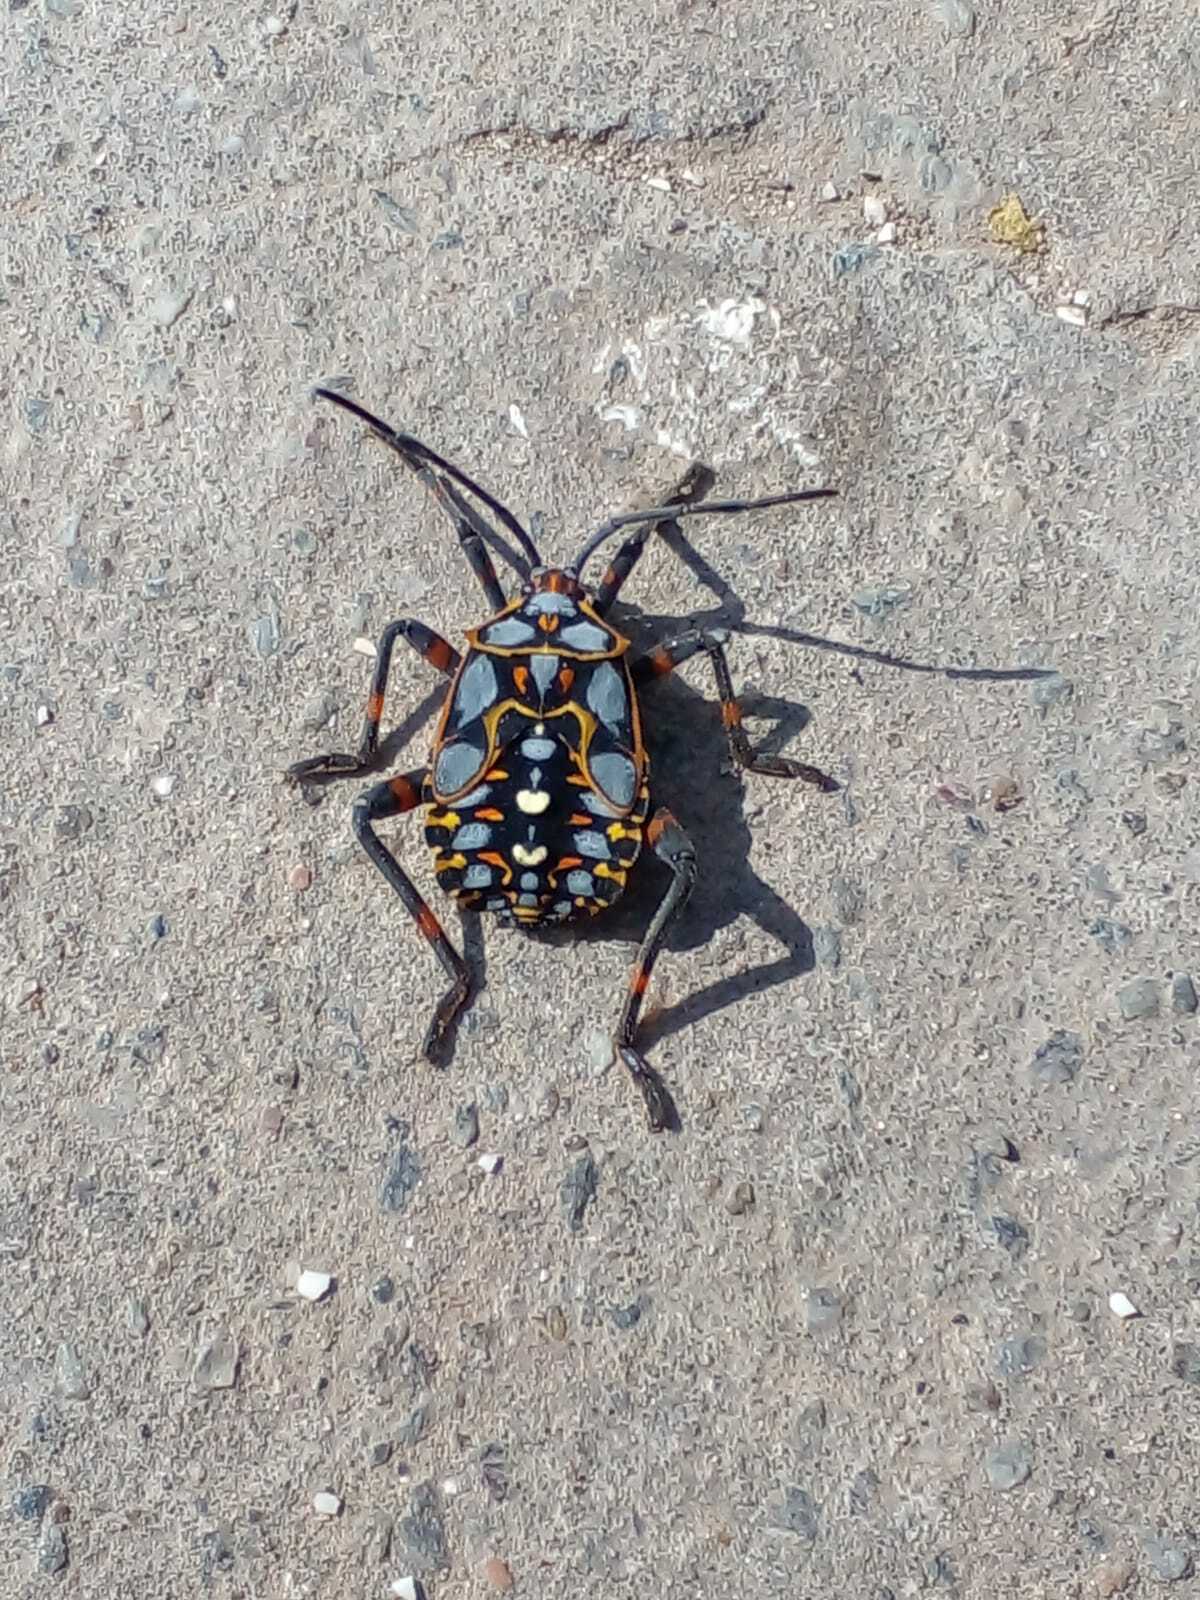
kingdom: Animalia
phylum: Arthropoda
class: Insecta
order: Hemiptera
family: Coreidae
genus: Pachylis
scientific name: Pachylis argentinus
